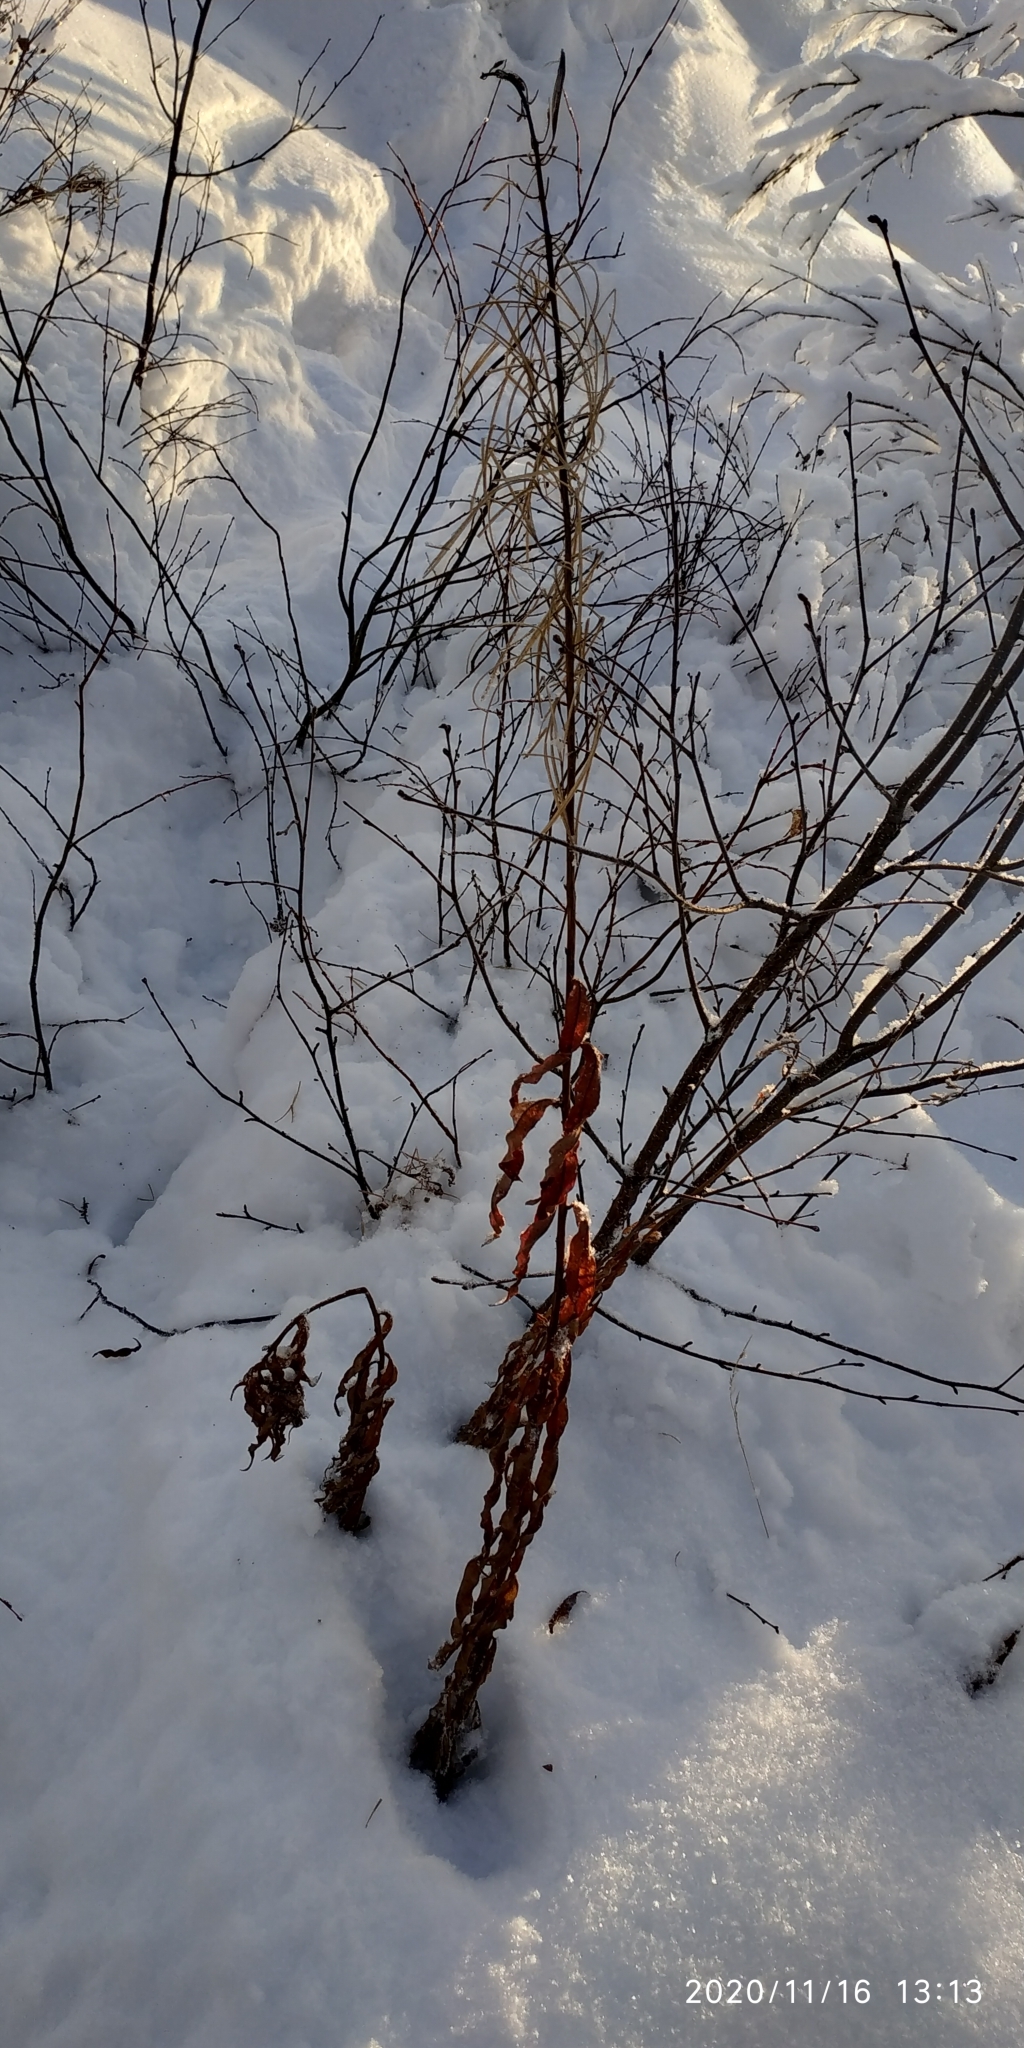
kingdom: Plantae
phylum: Tracheophyta
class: Magnoliopsida
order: Myrtales
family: Onagraceae
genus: Chamaenerion
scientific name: Chamaenerion angustifolium
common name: Fireweed
